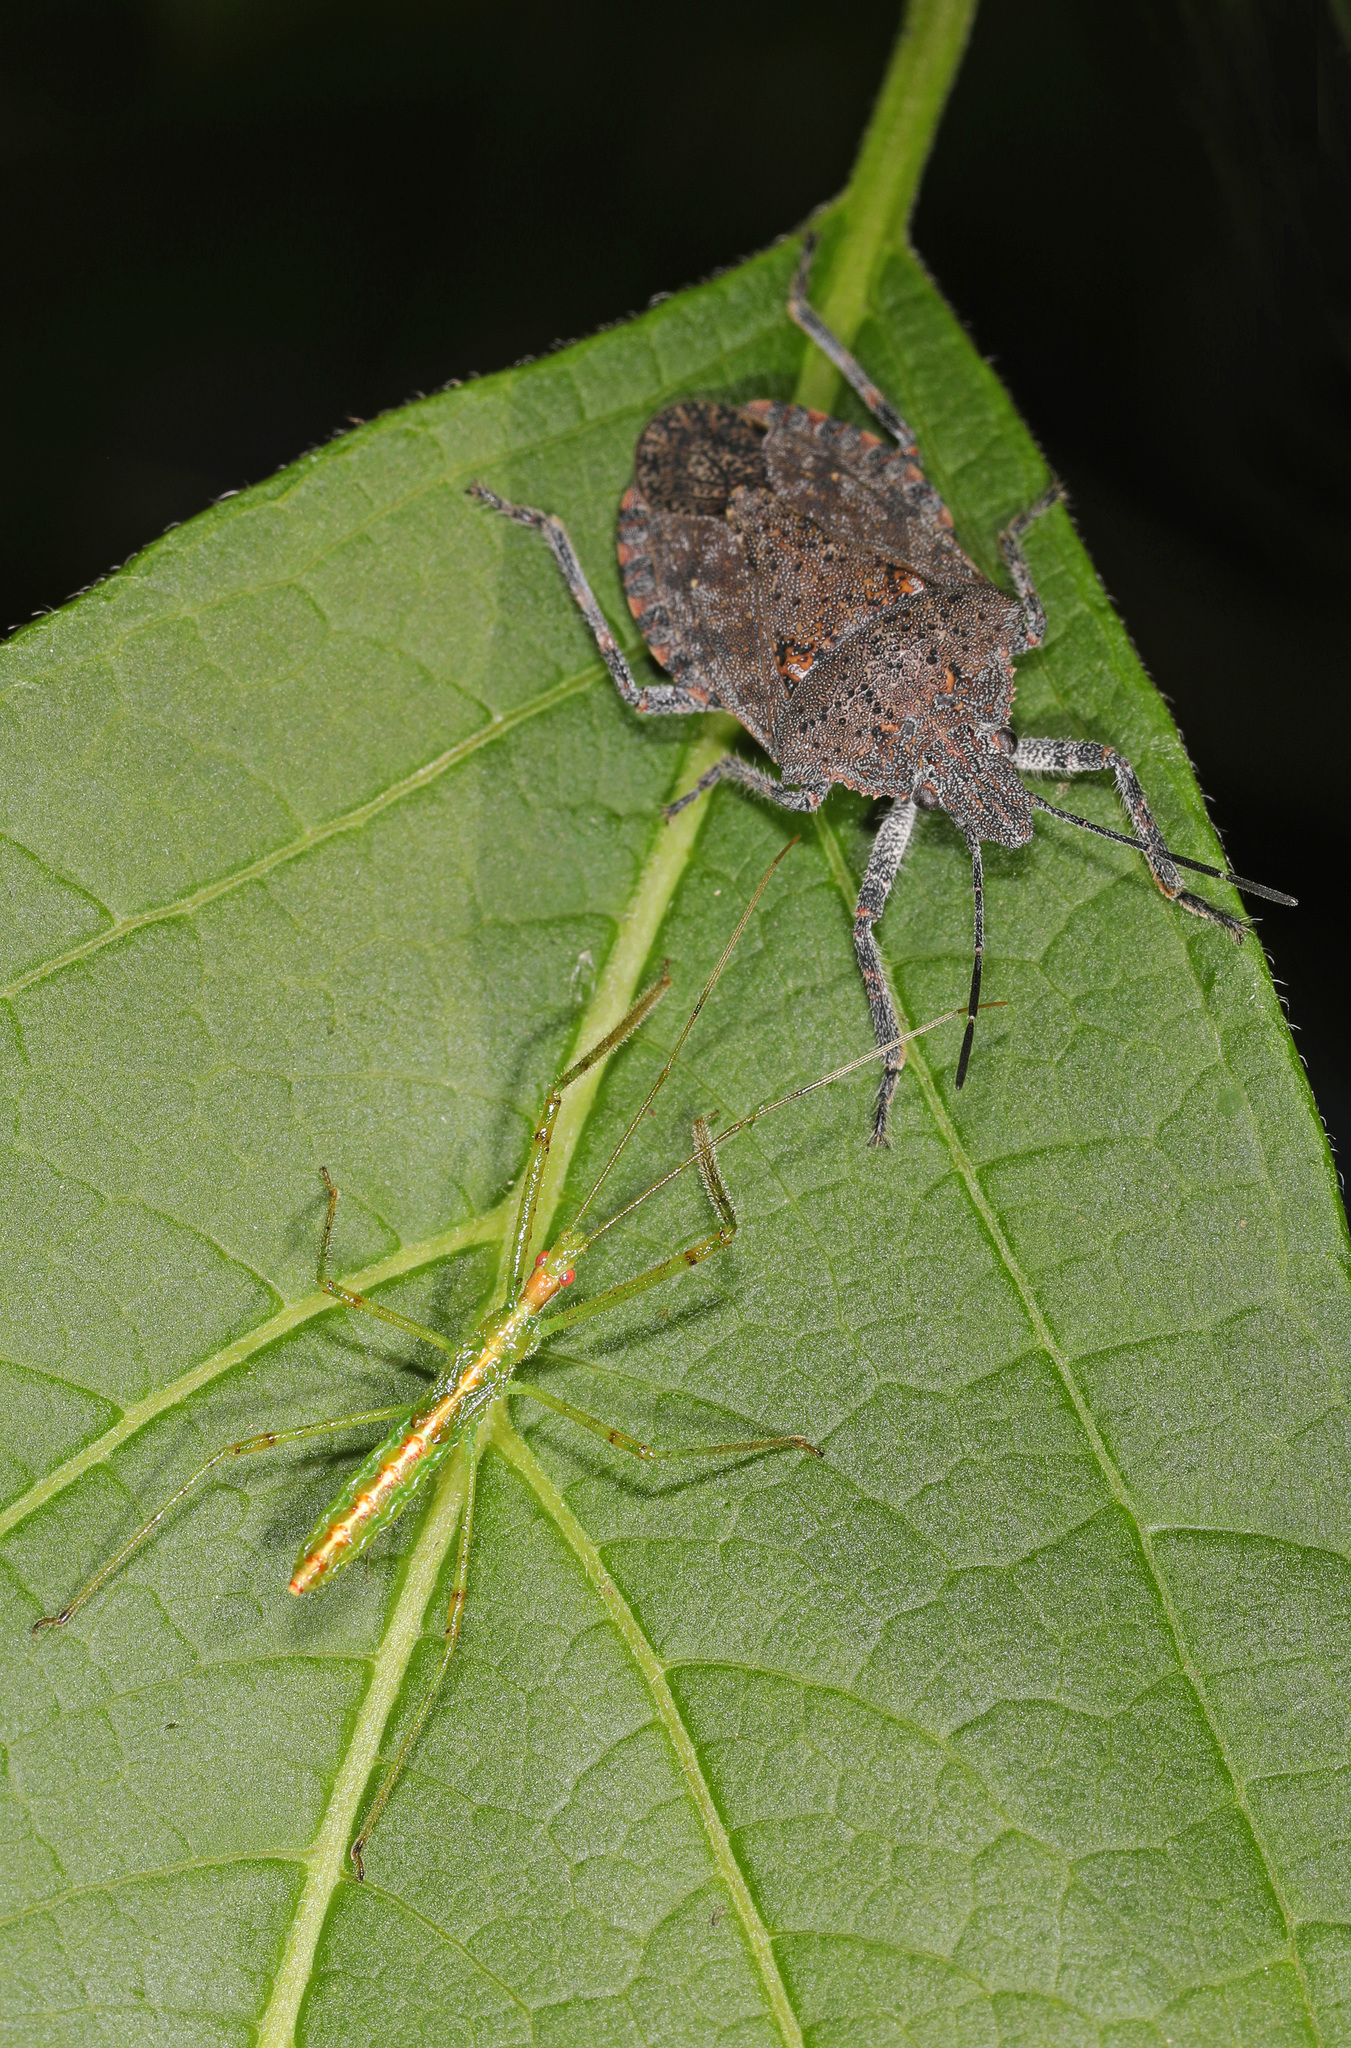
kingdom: Animalia
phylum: Arthropoda
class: Insecta
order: Hemiptera
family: Reduviidae
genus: Zelus
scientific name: Zelus luridus
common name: Pale green assassin bug
